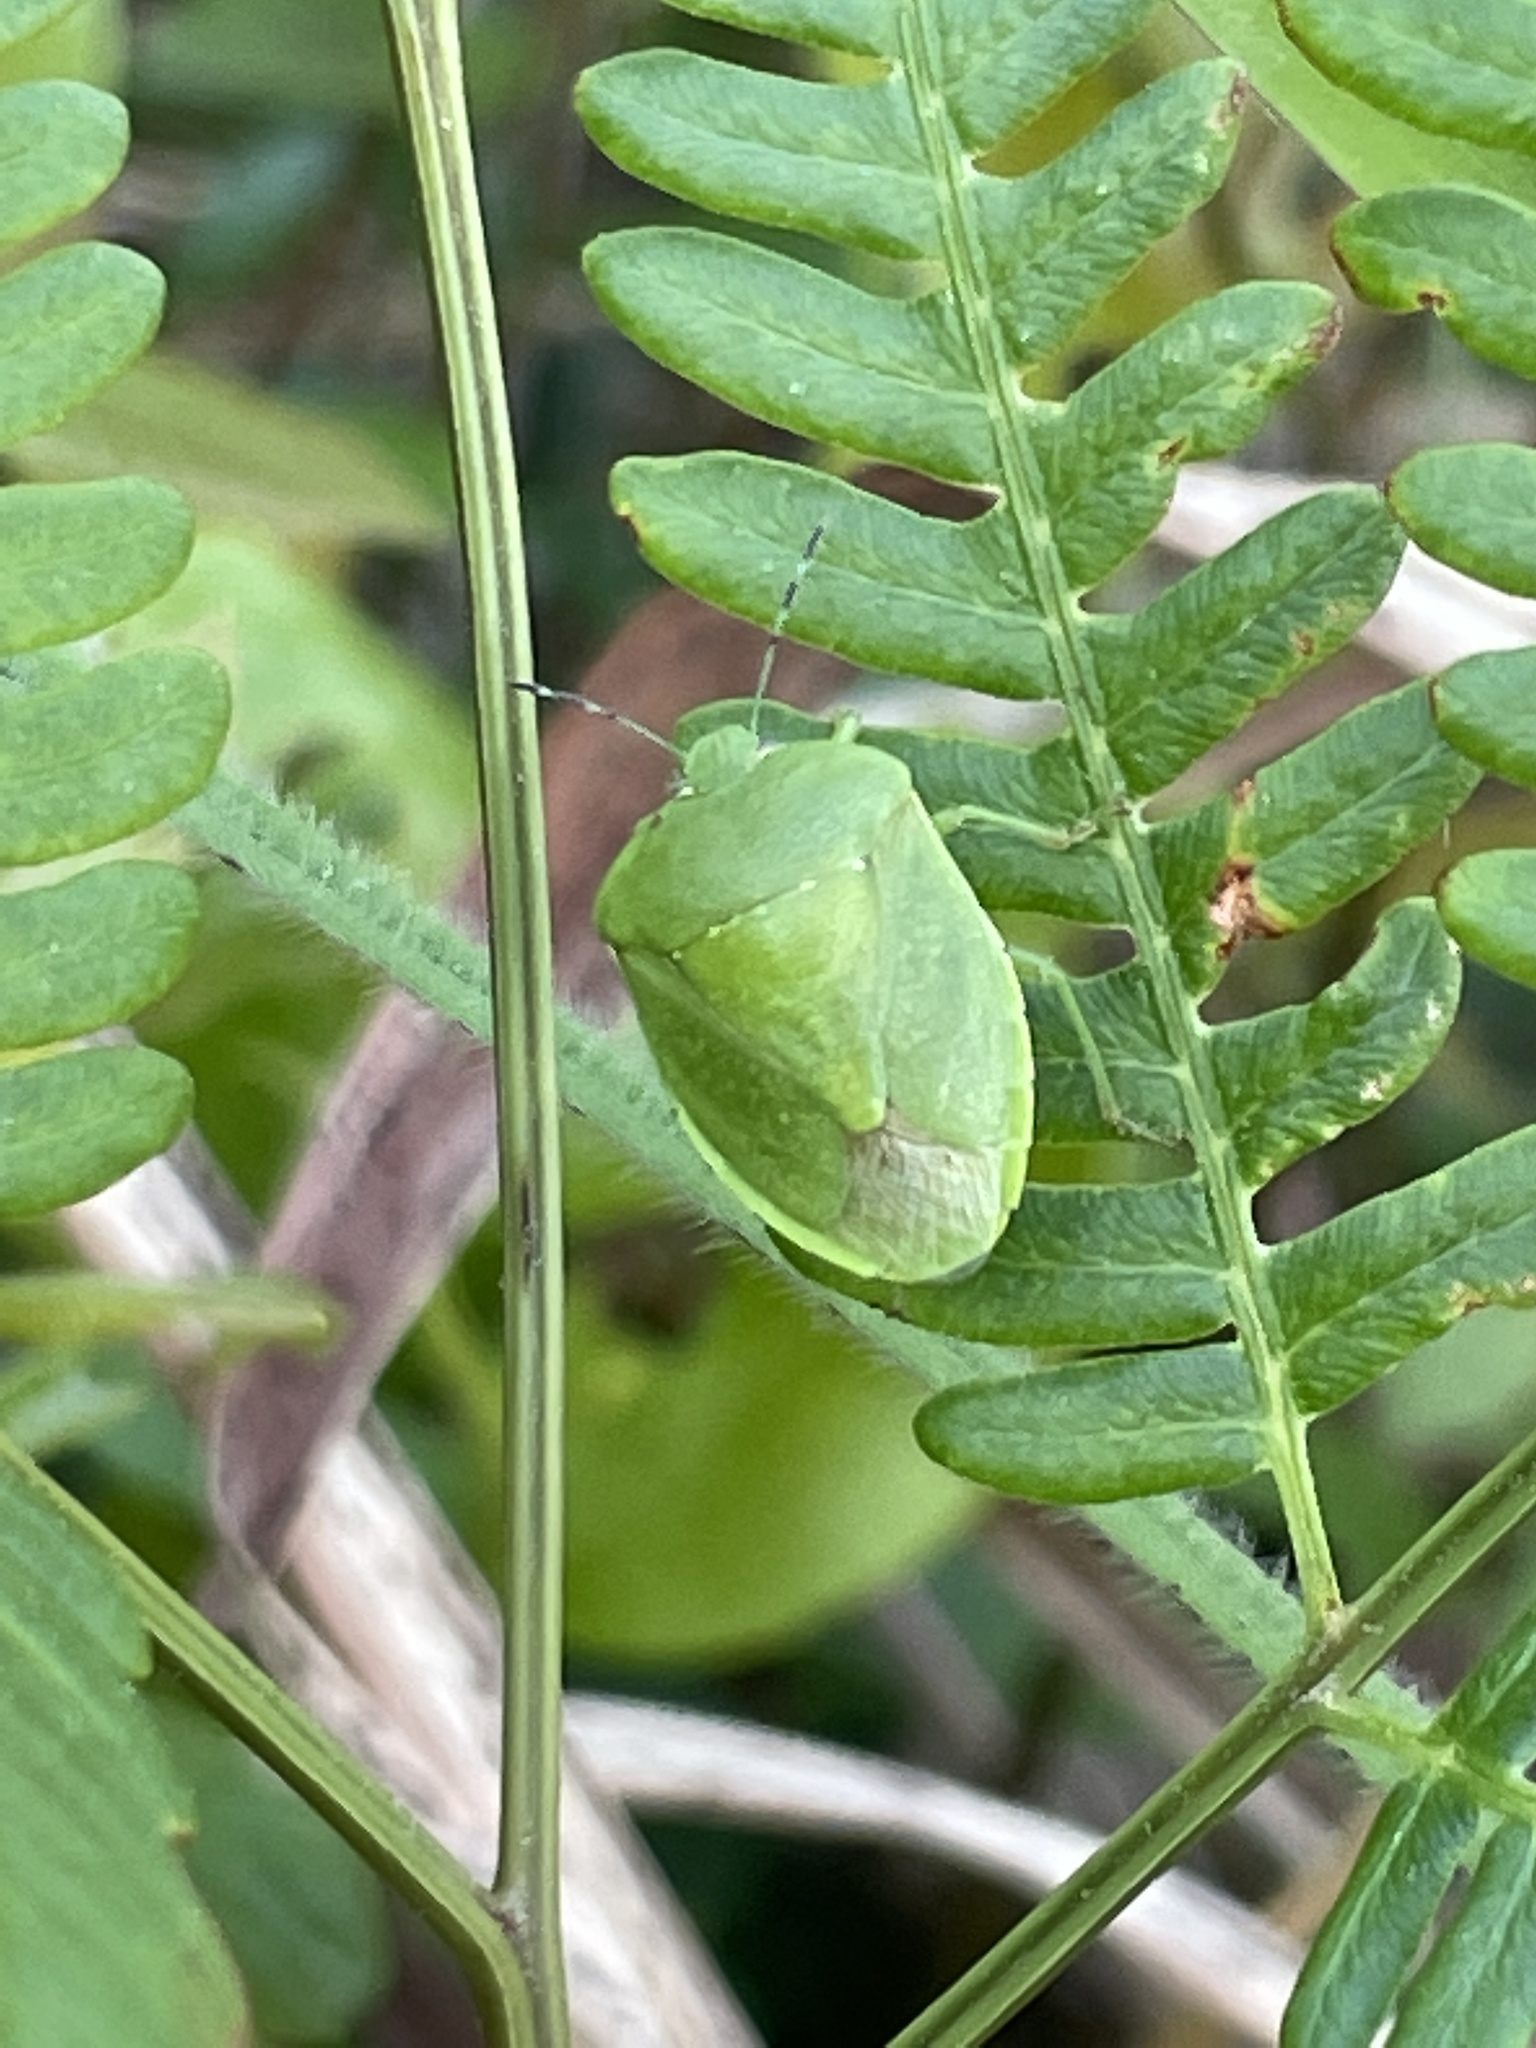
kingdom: Animalia
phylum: Arthropoda
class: Insecta
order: Hemiptera
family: Pentatomidae
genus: Chinavia
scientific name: Chinavia
